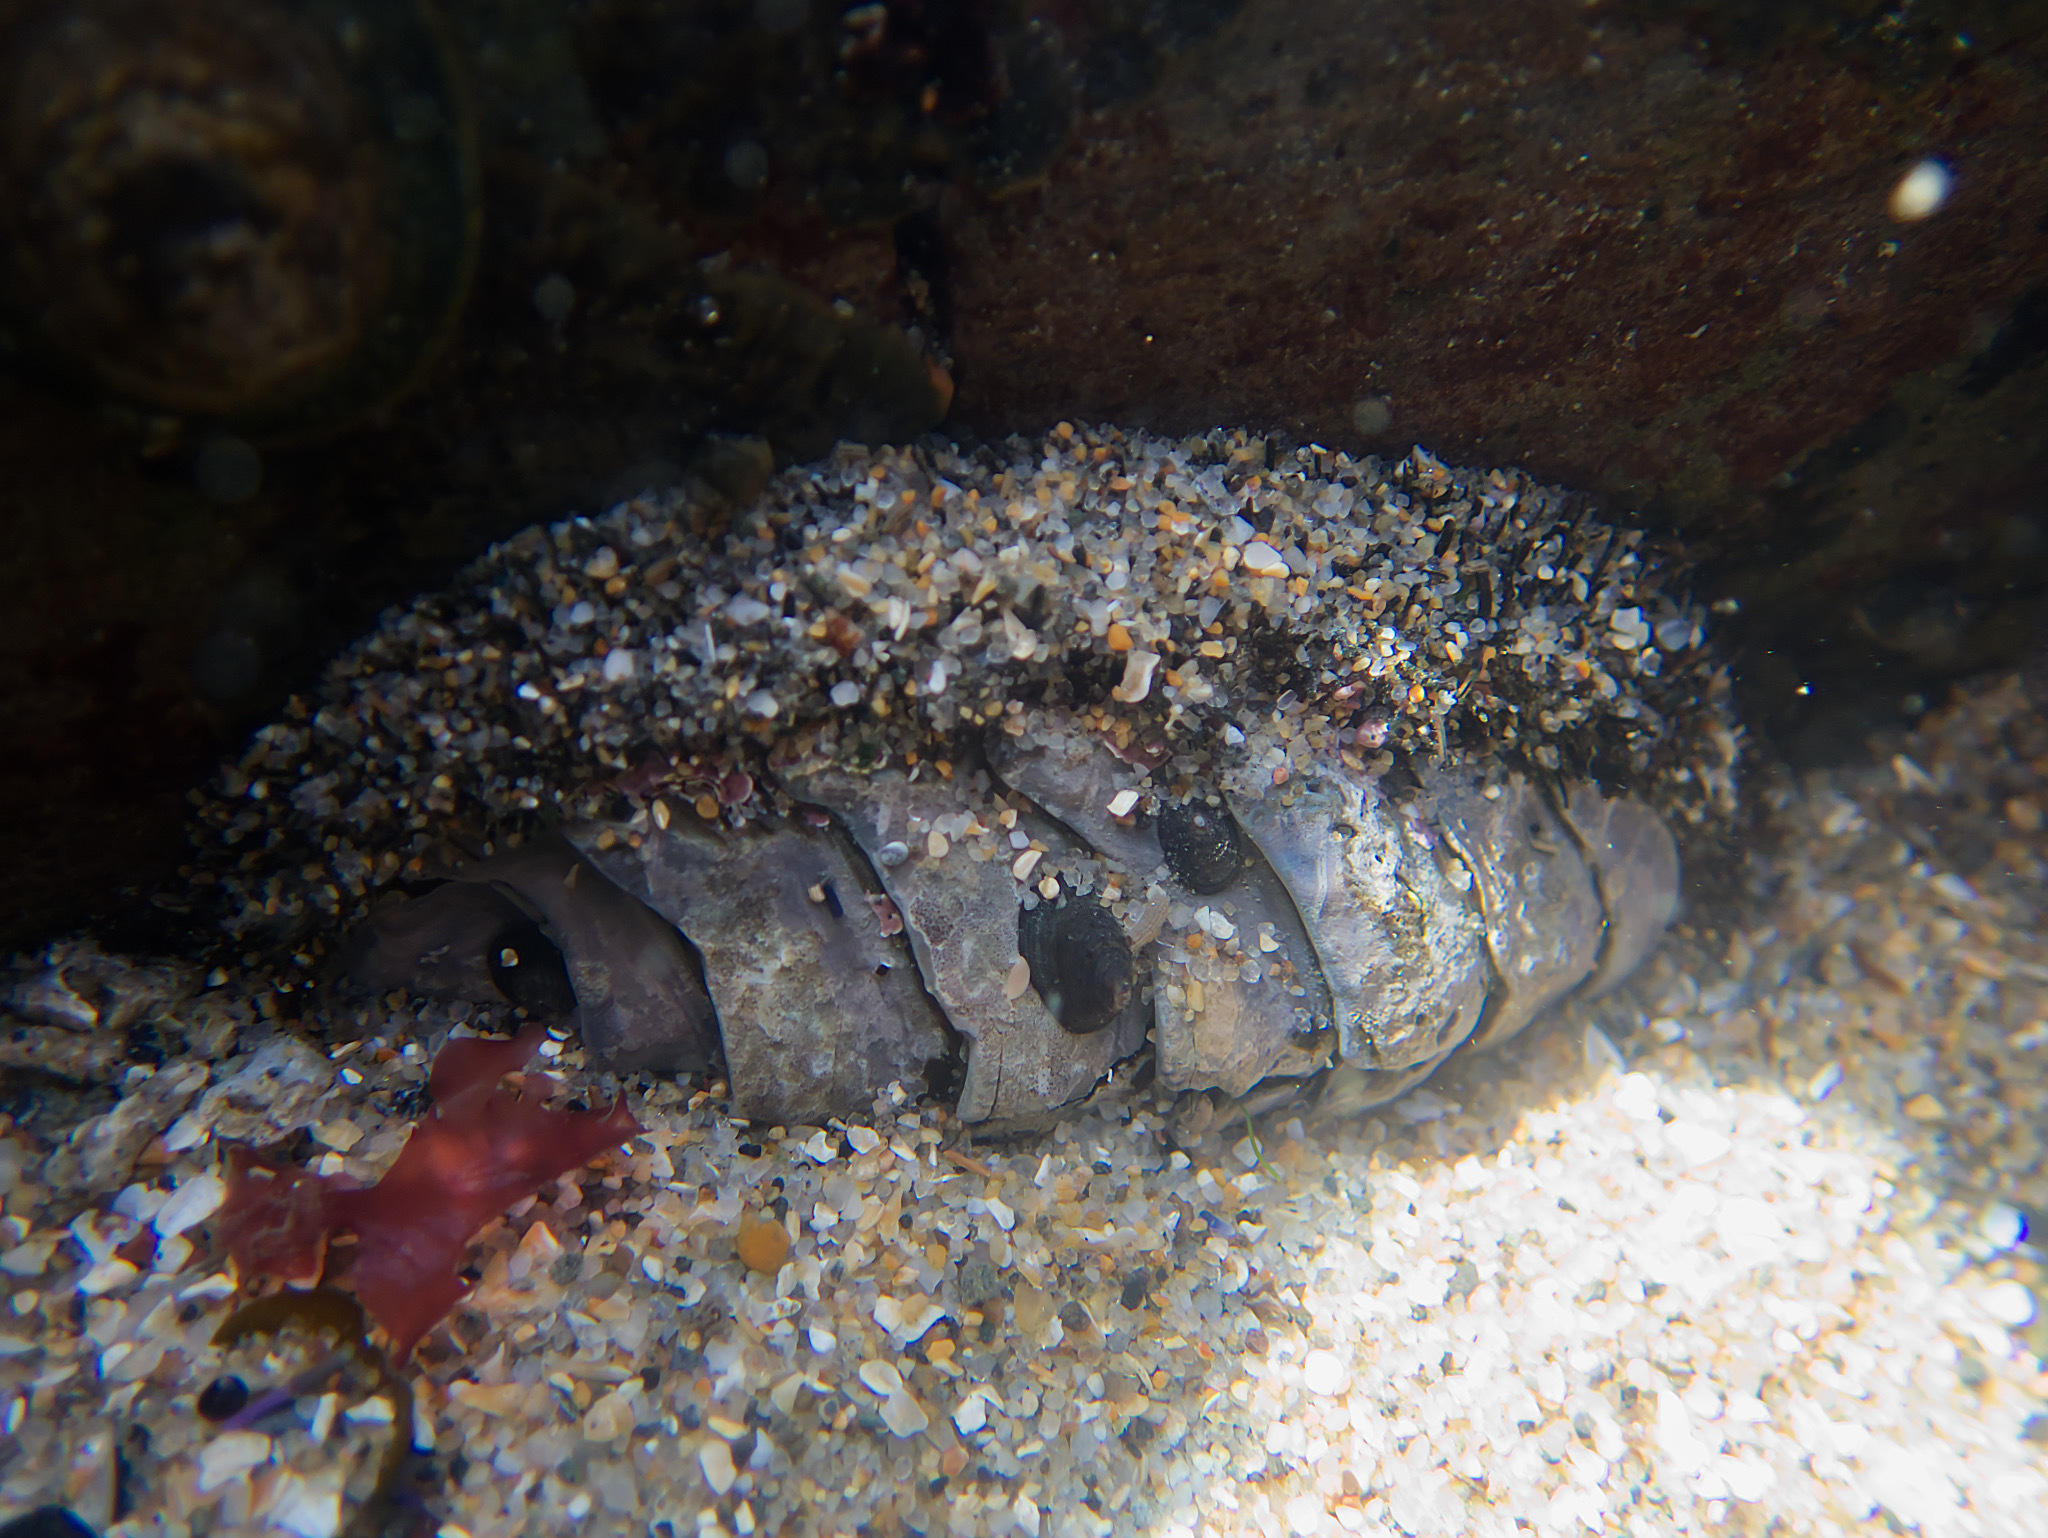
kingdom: Animalia
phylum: Mollusca
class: Polyplacophora
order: Chitonida
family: Mopaliidae
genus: Mopalia
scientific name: Mopalia muscosa
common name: Mossy chiton
